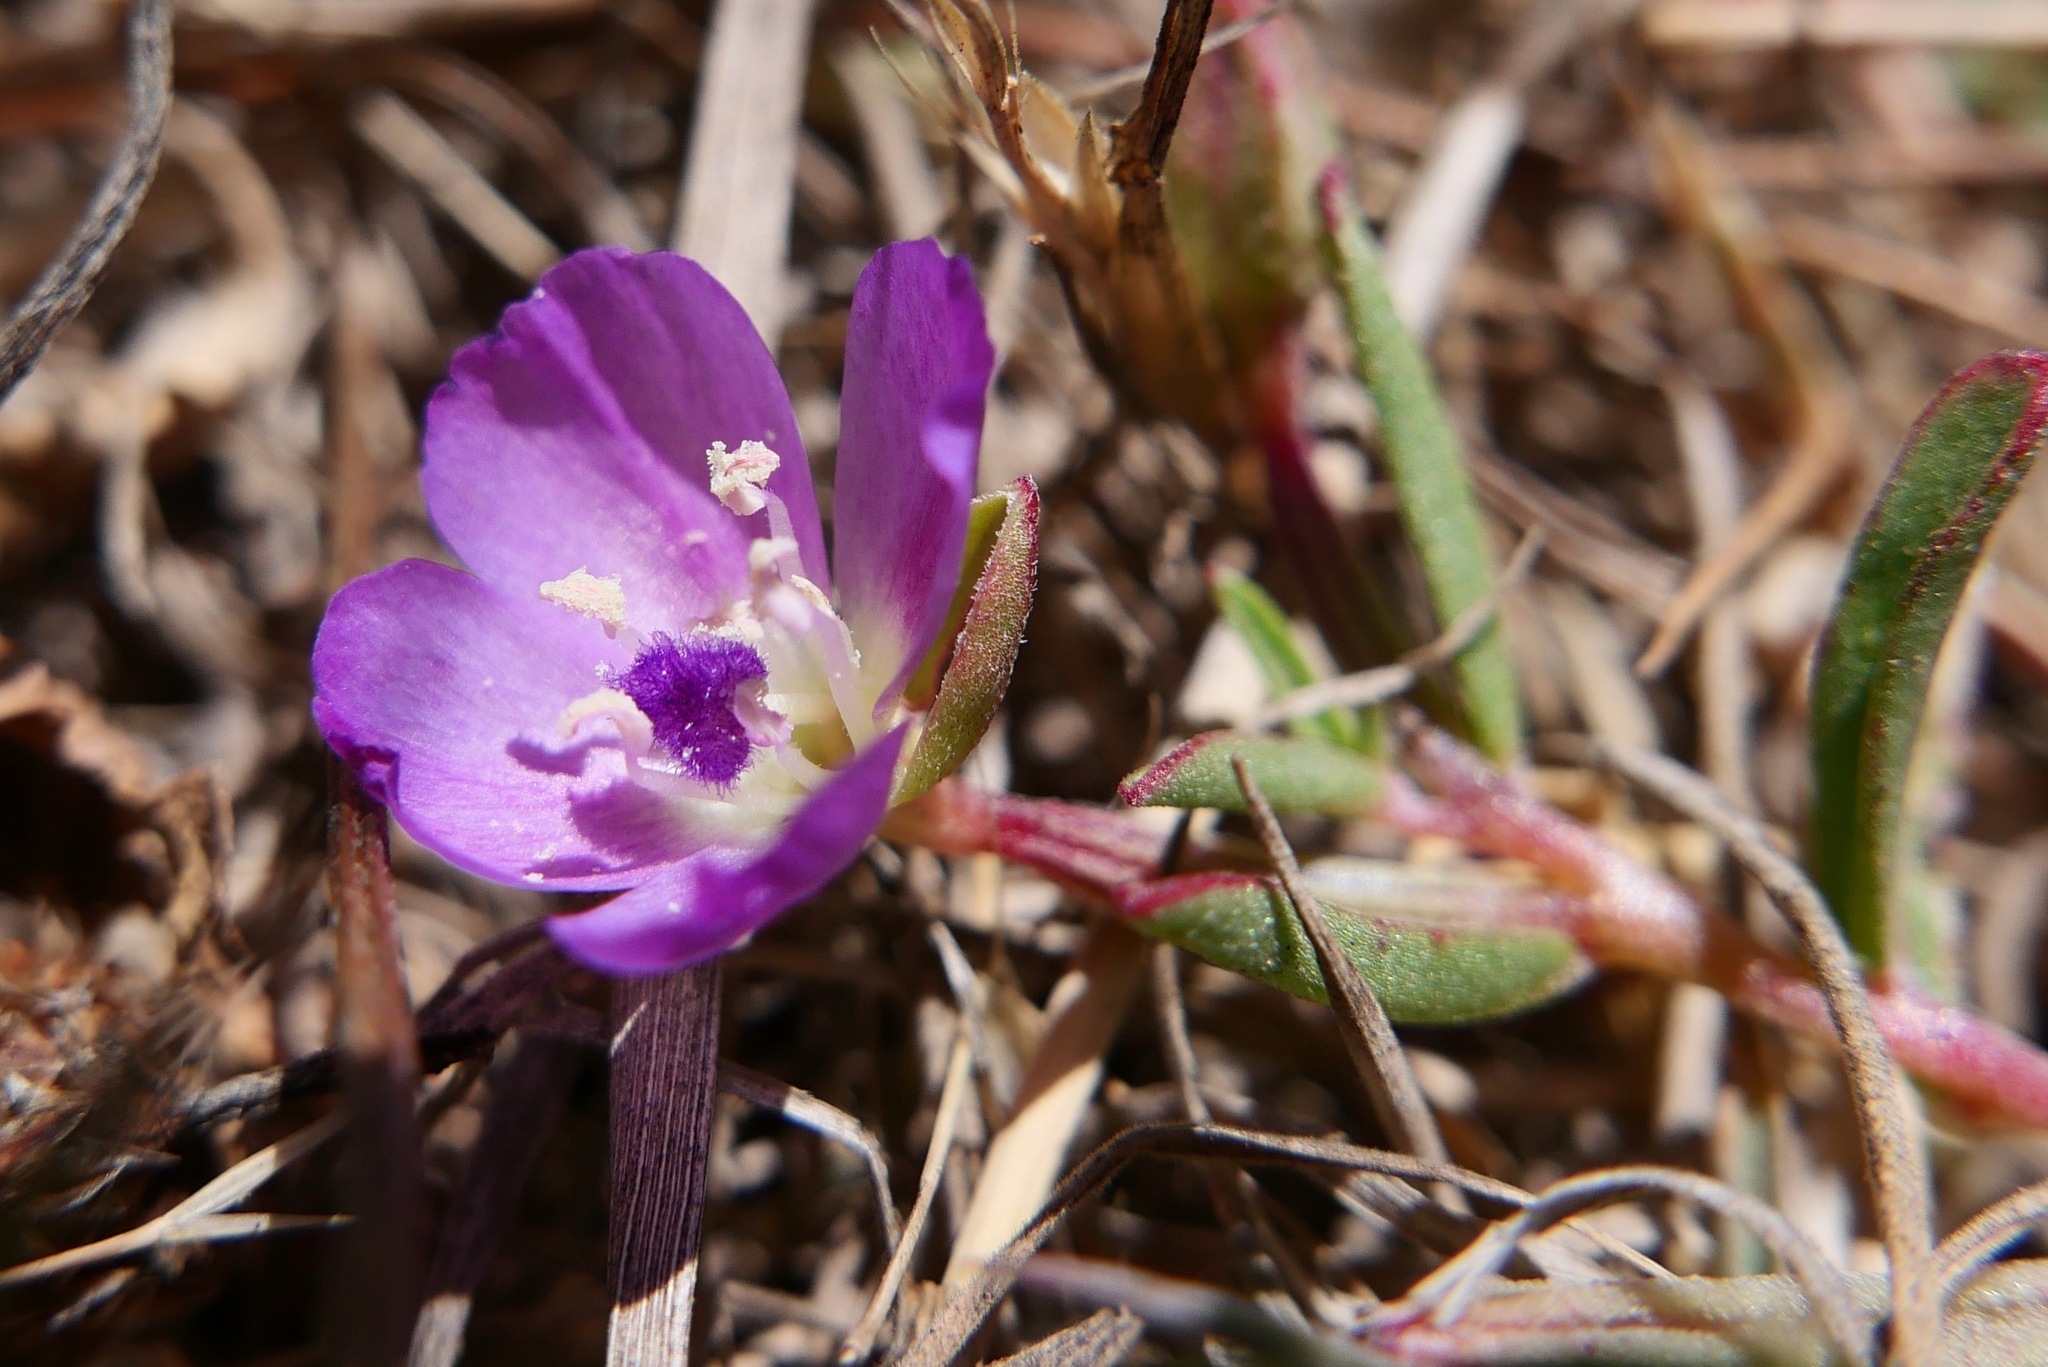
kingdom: Plantae
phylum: Tracheophyta
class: Magnoliopsida
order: Myrtales
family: Onagraceae
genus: Clarkia
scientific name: Clarkia prostrata
